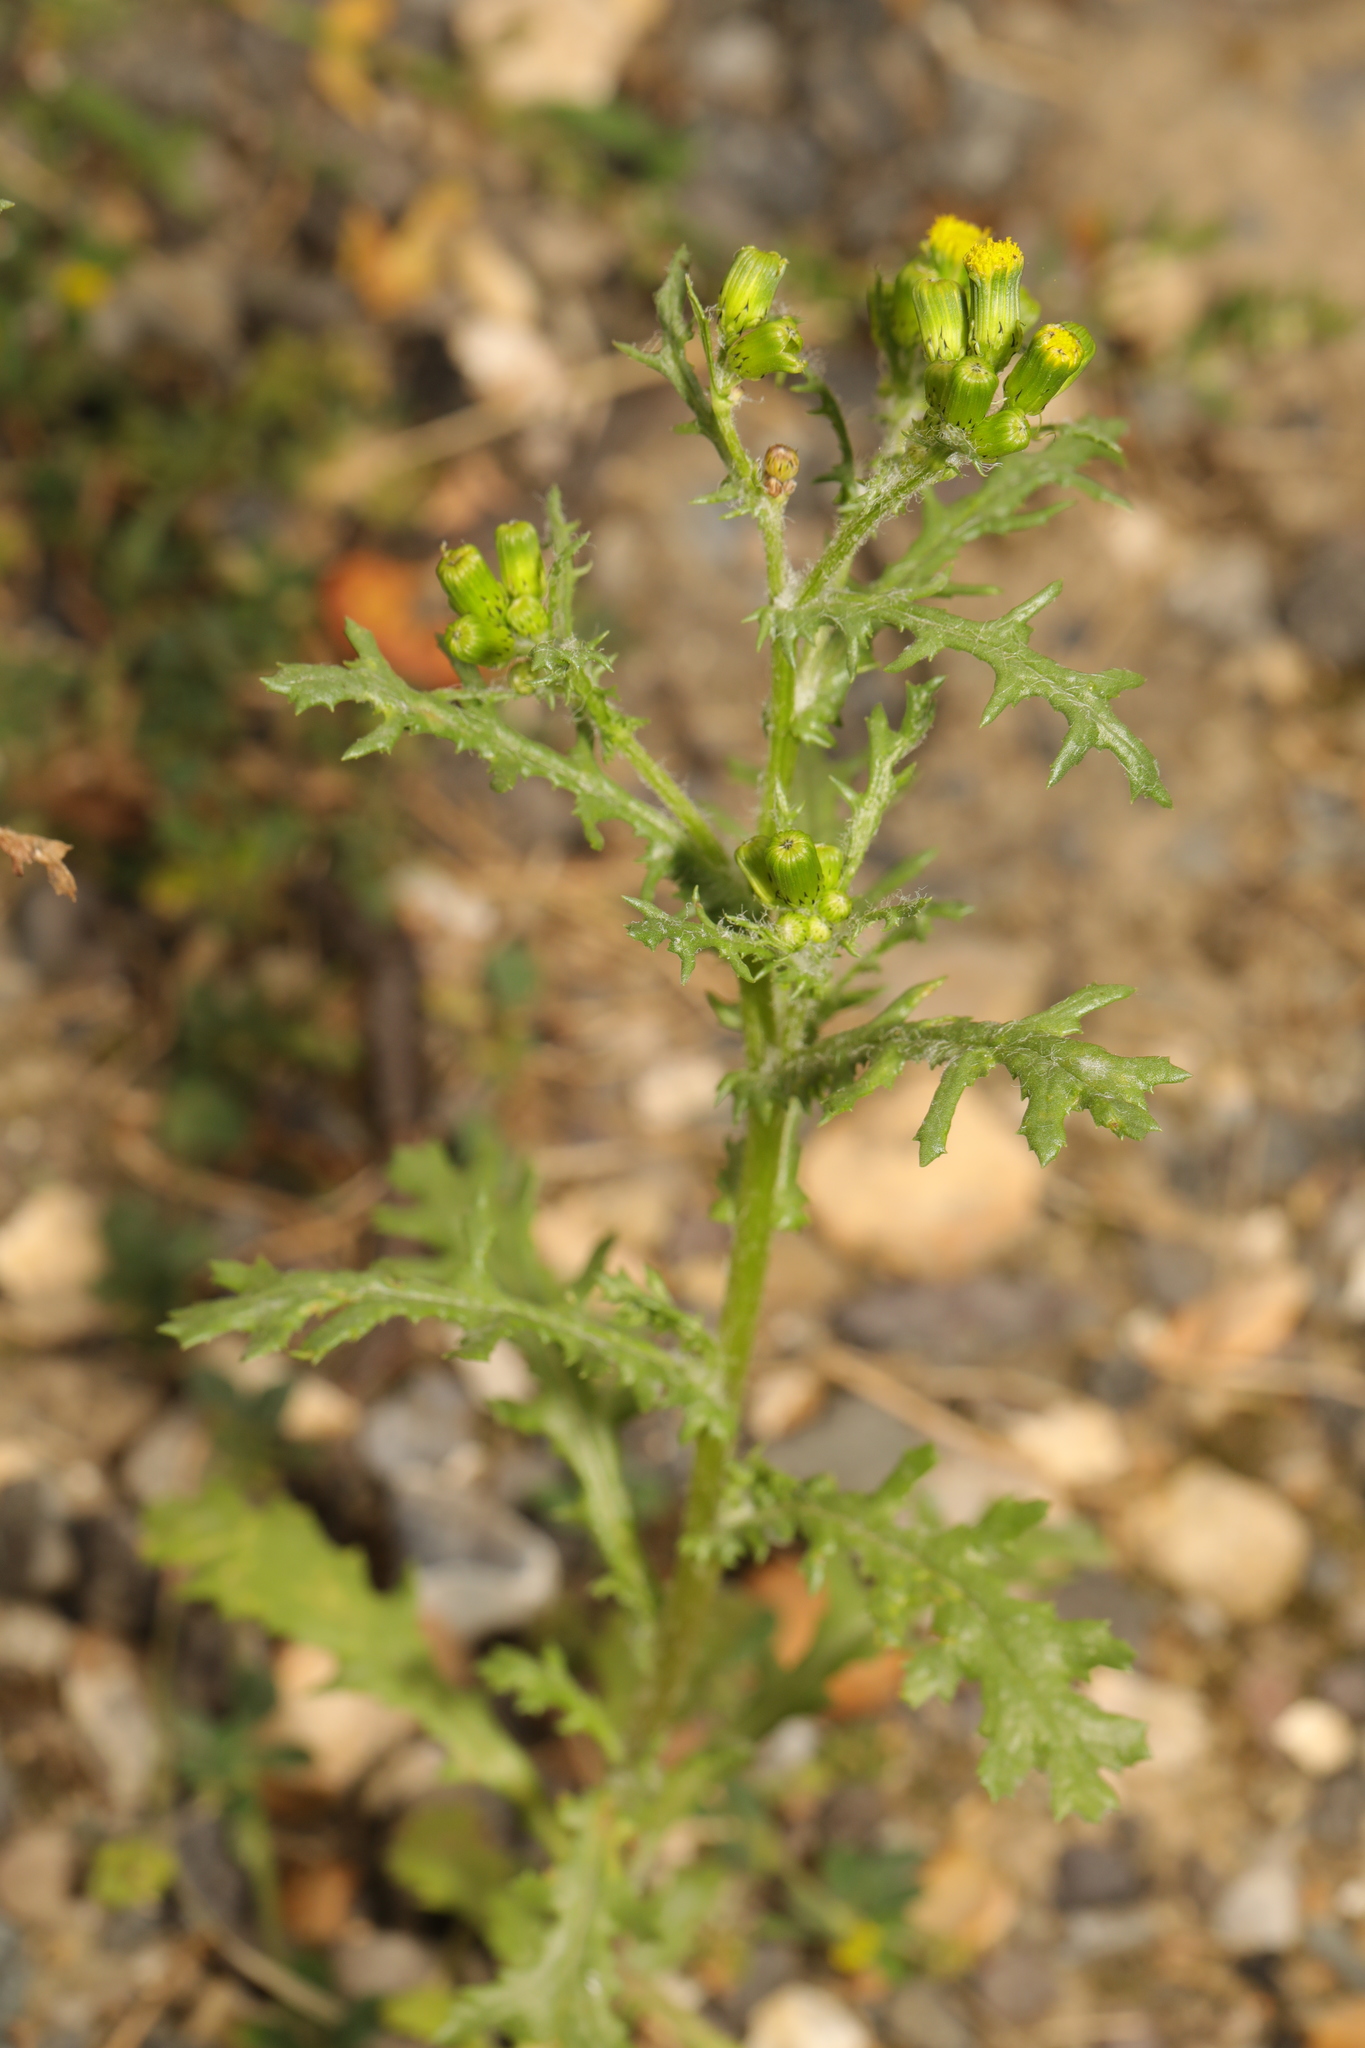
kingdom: Plantae
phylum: Tracheophyta
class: Magnoliopsida
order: Asterales
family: Asteraceae
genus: Senecio
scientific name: Senecio vulgaris
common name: Old-man-in-the-spring
